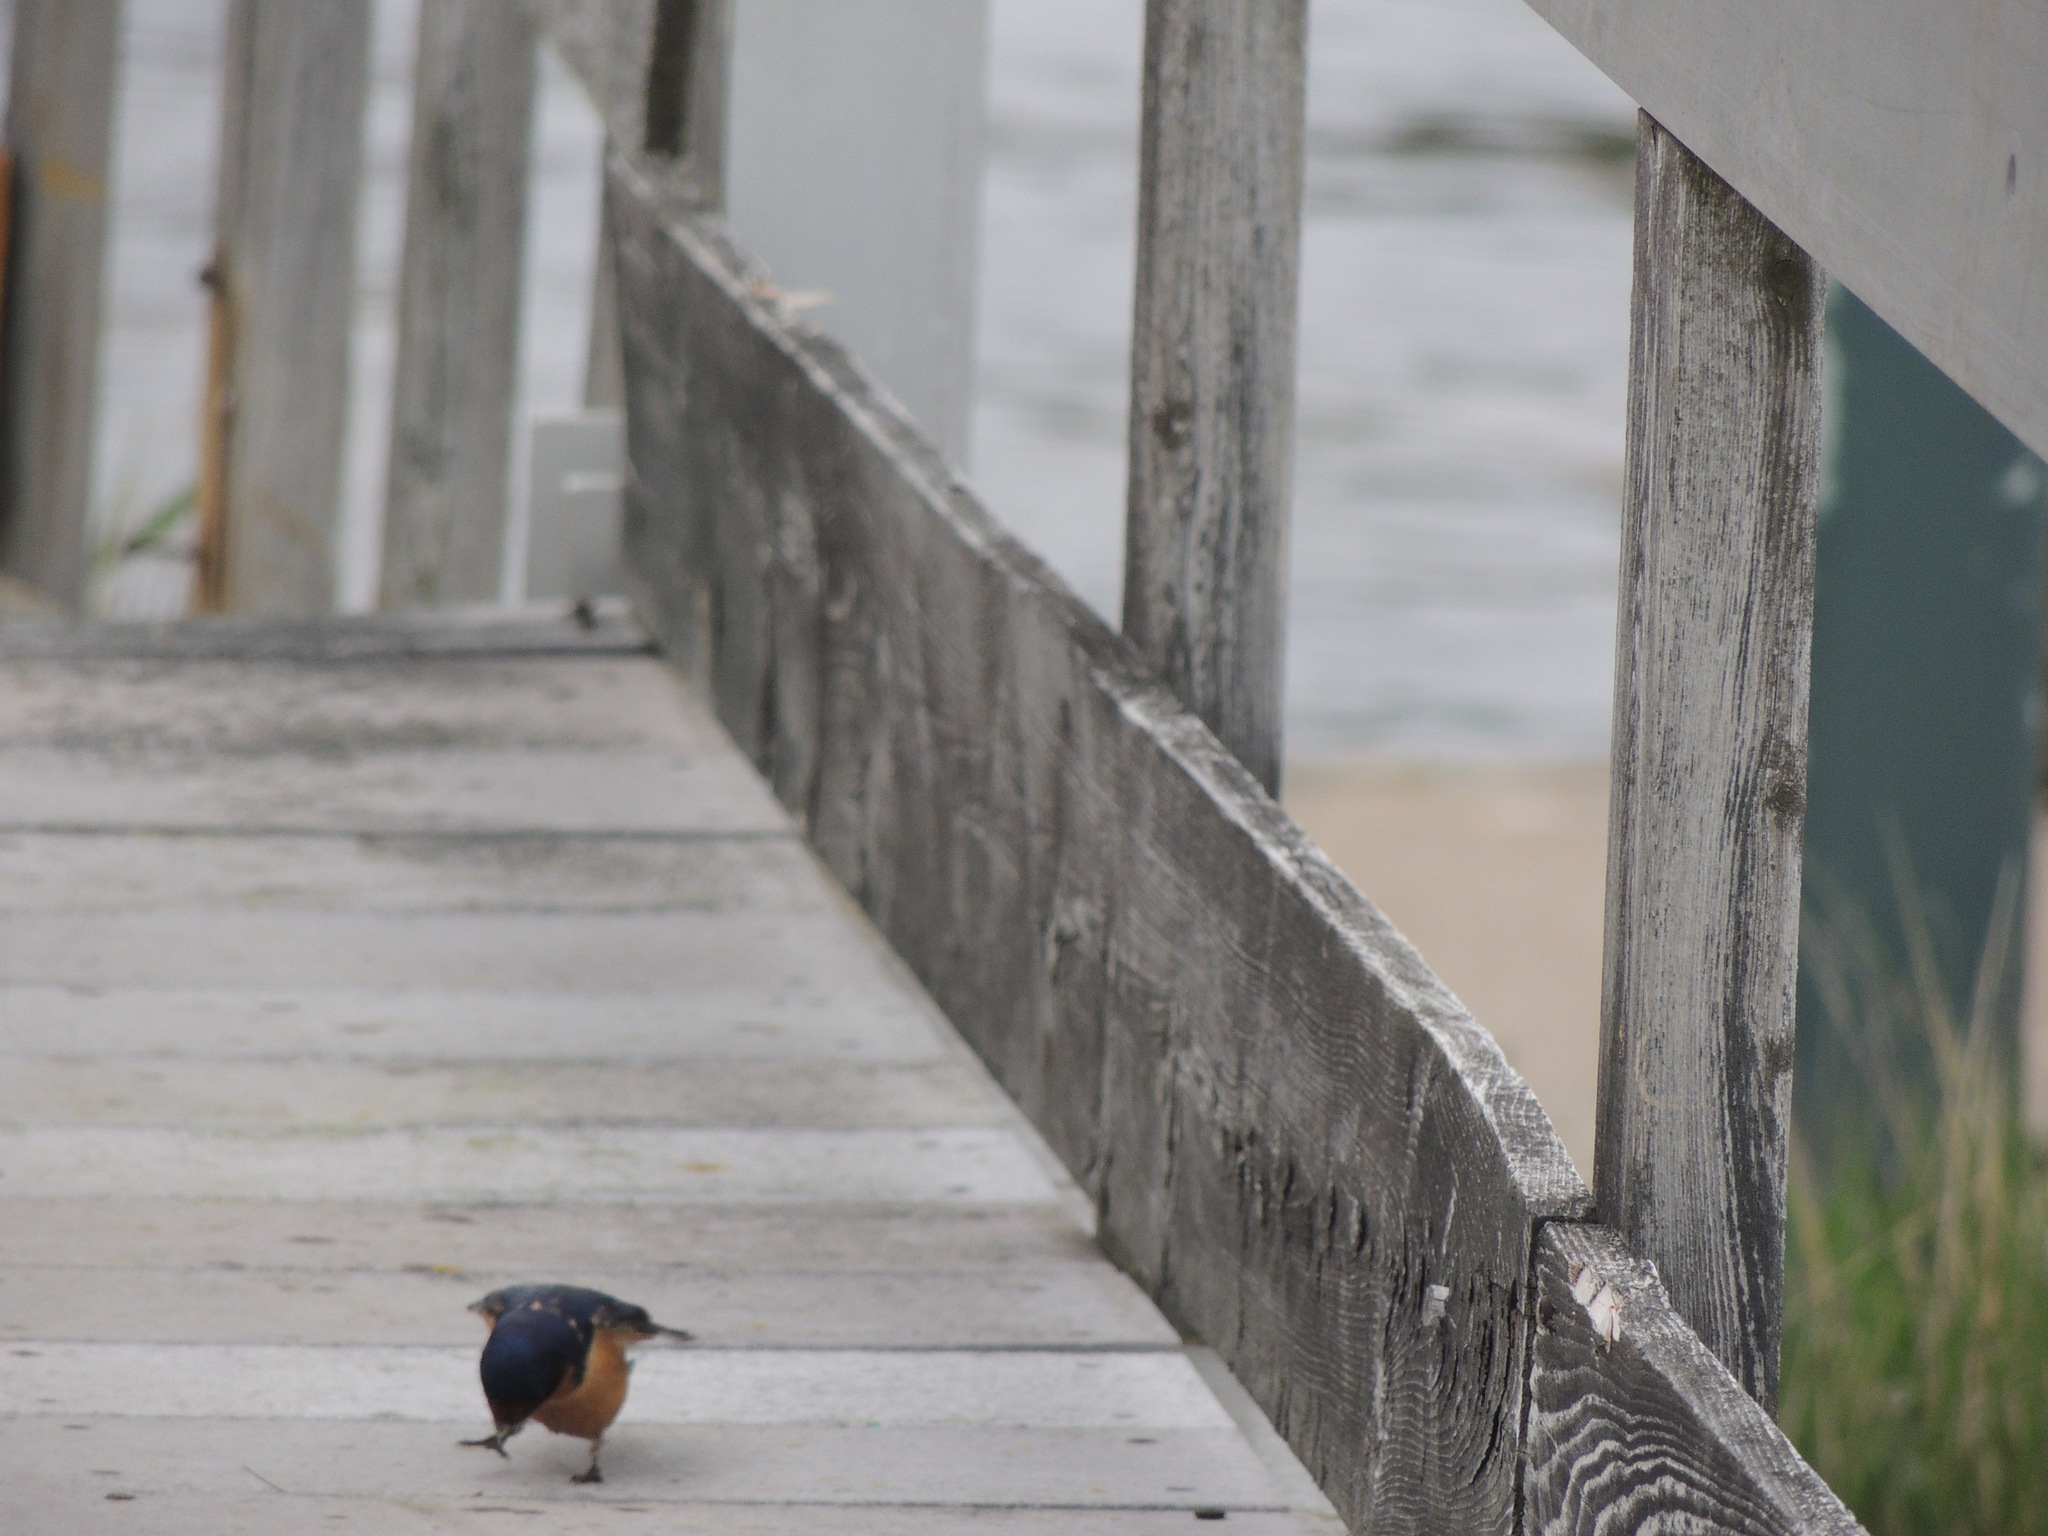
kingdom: Animalia
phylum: Chordata
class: Aves
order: Passeriformes
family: Hirundinidae
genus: Hirundo
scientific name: Hirundo rustica
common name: Barn swallow
